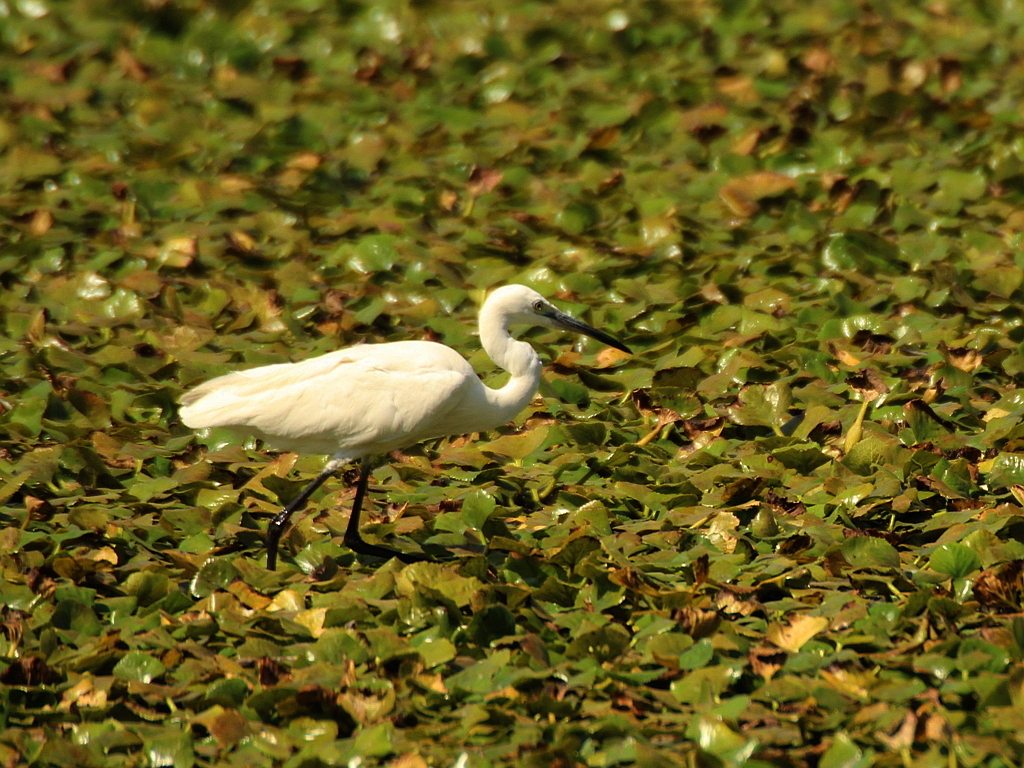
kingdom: Animalia
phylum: Chordata
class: Aves
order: Pelecaniformes
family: Ardeidae
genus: Egretta
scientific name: Egretta garzetta
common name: Little egret
